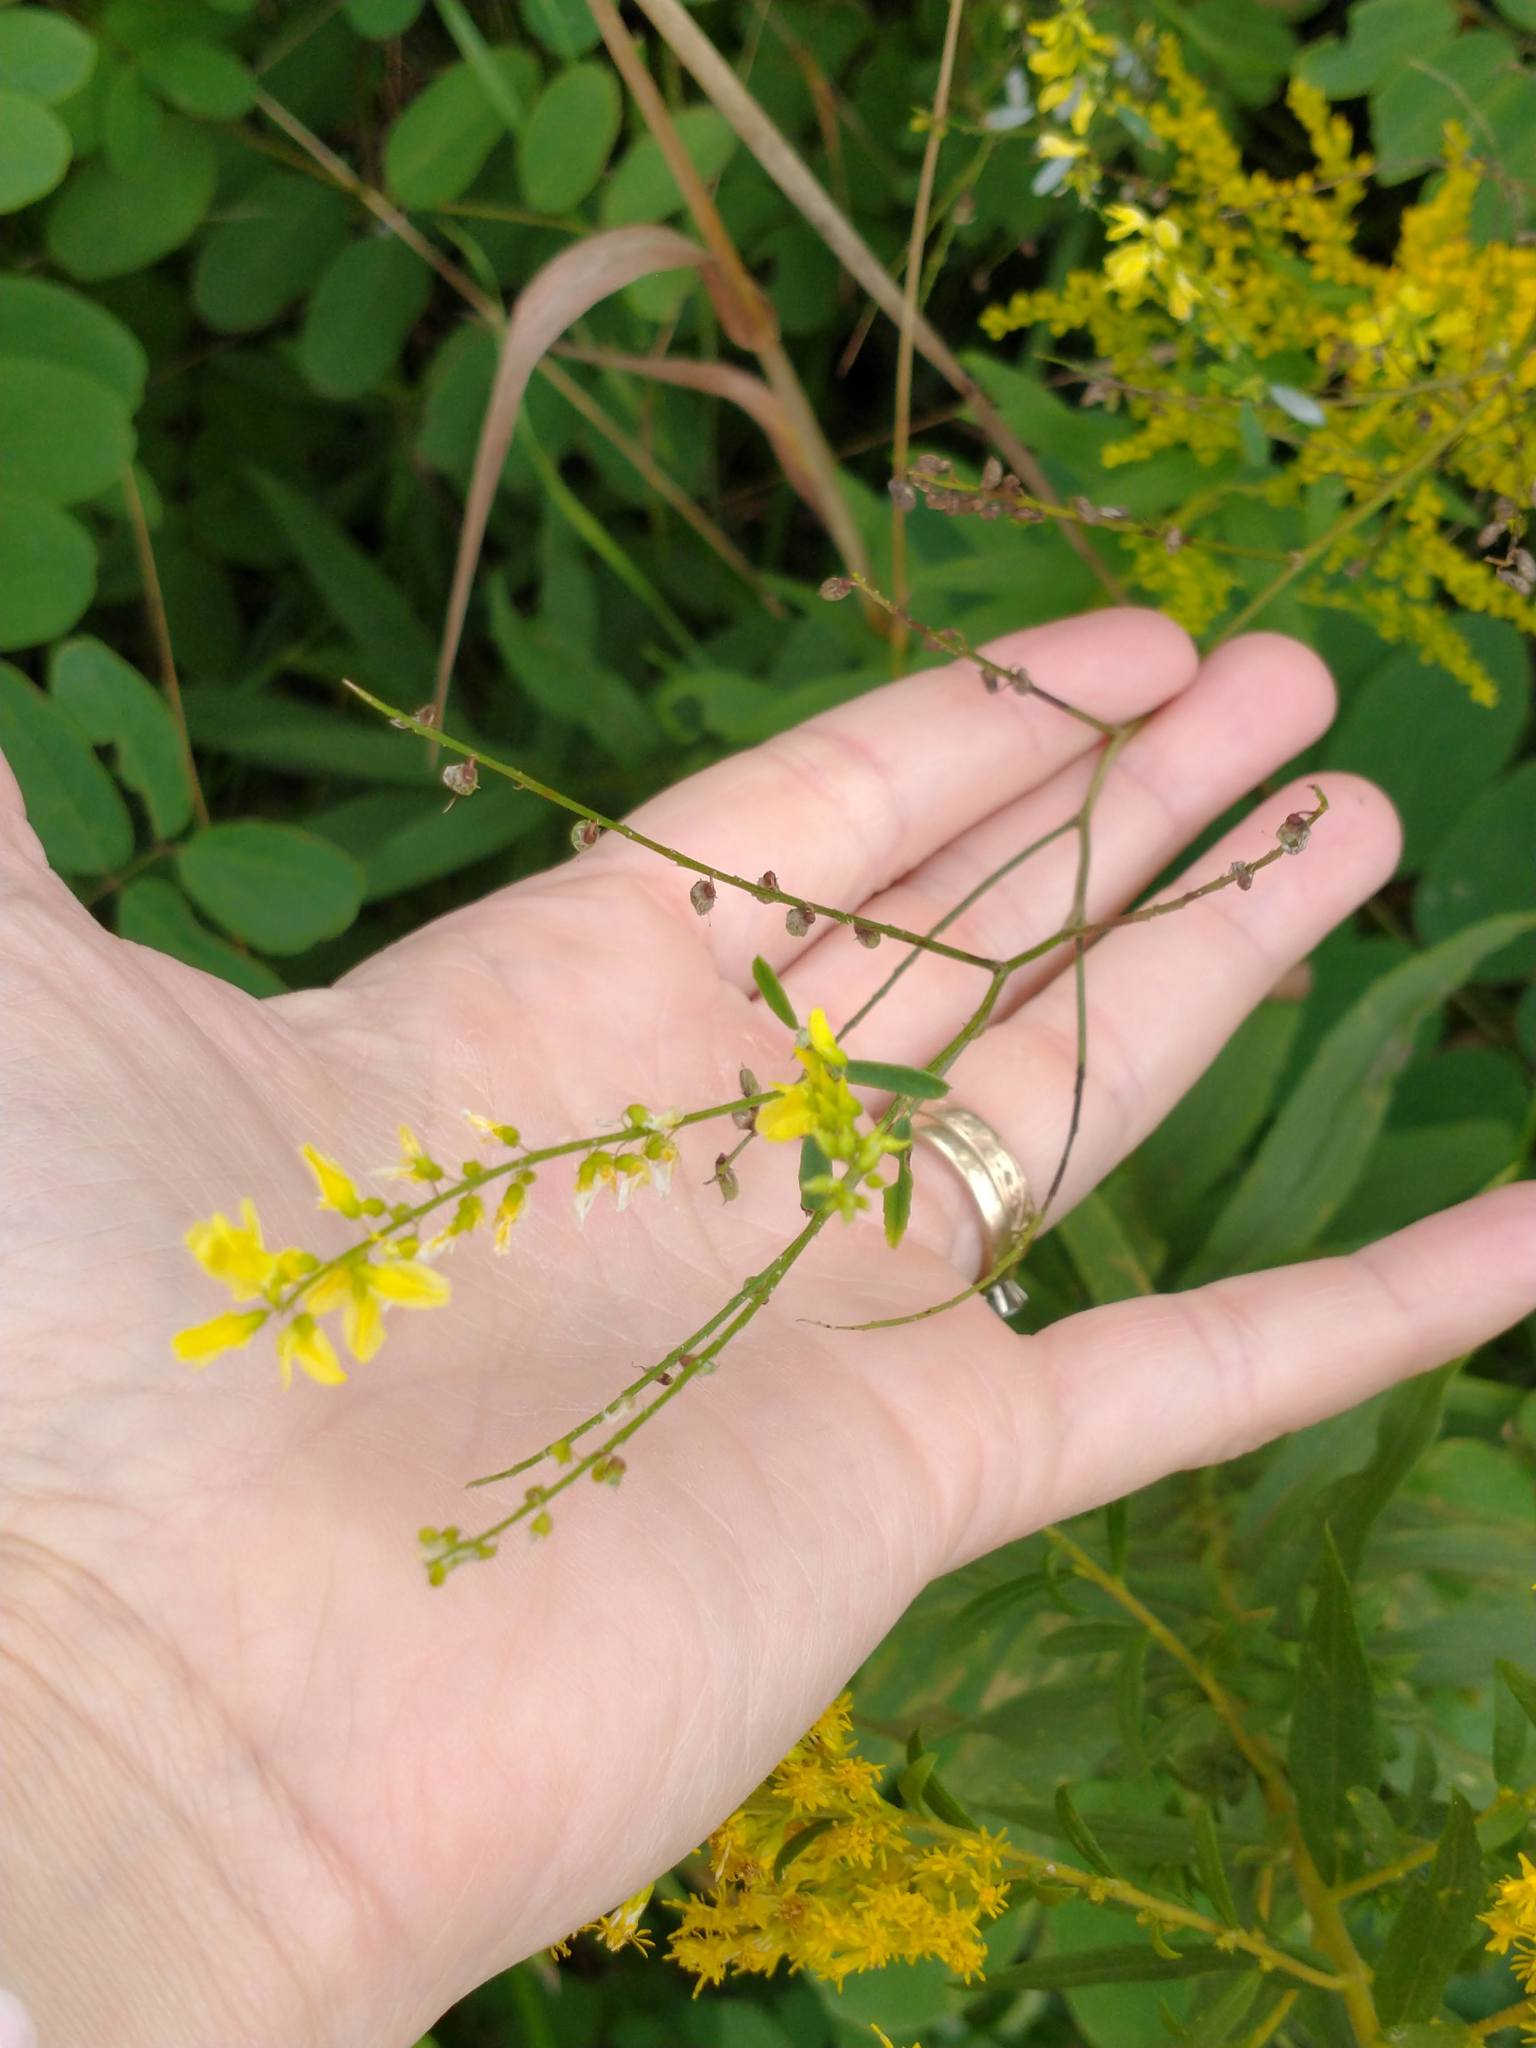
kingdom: Plantae
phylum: Tracheophyta
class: Magnoliopsida
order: Fabales
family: Fabaceae
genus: Melilotus
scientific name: Melilotus officinalis
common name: Sweetclover
